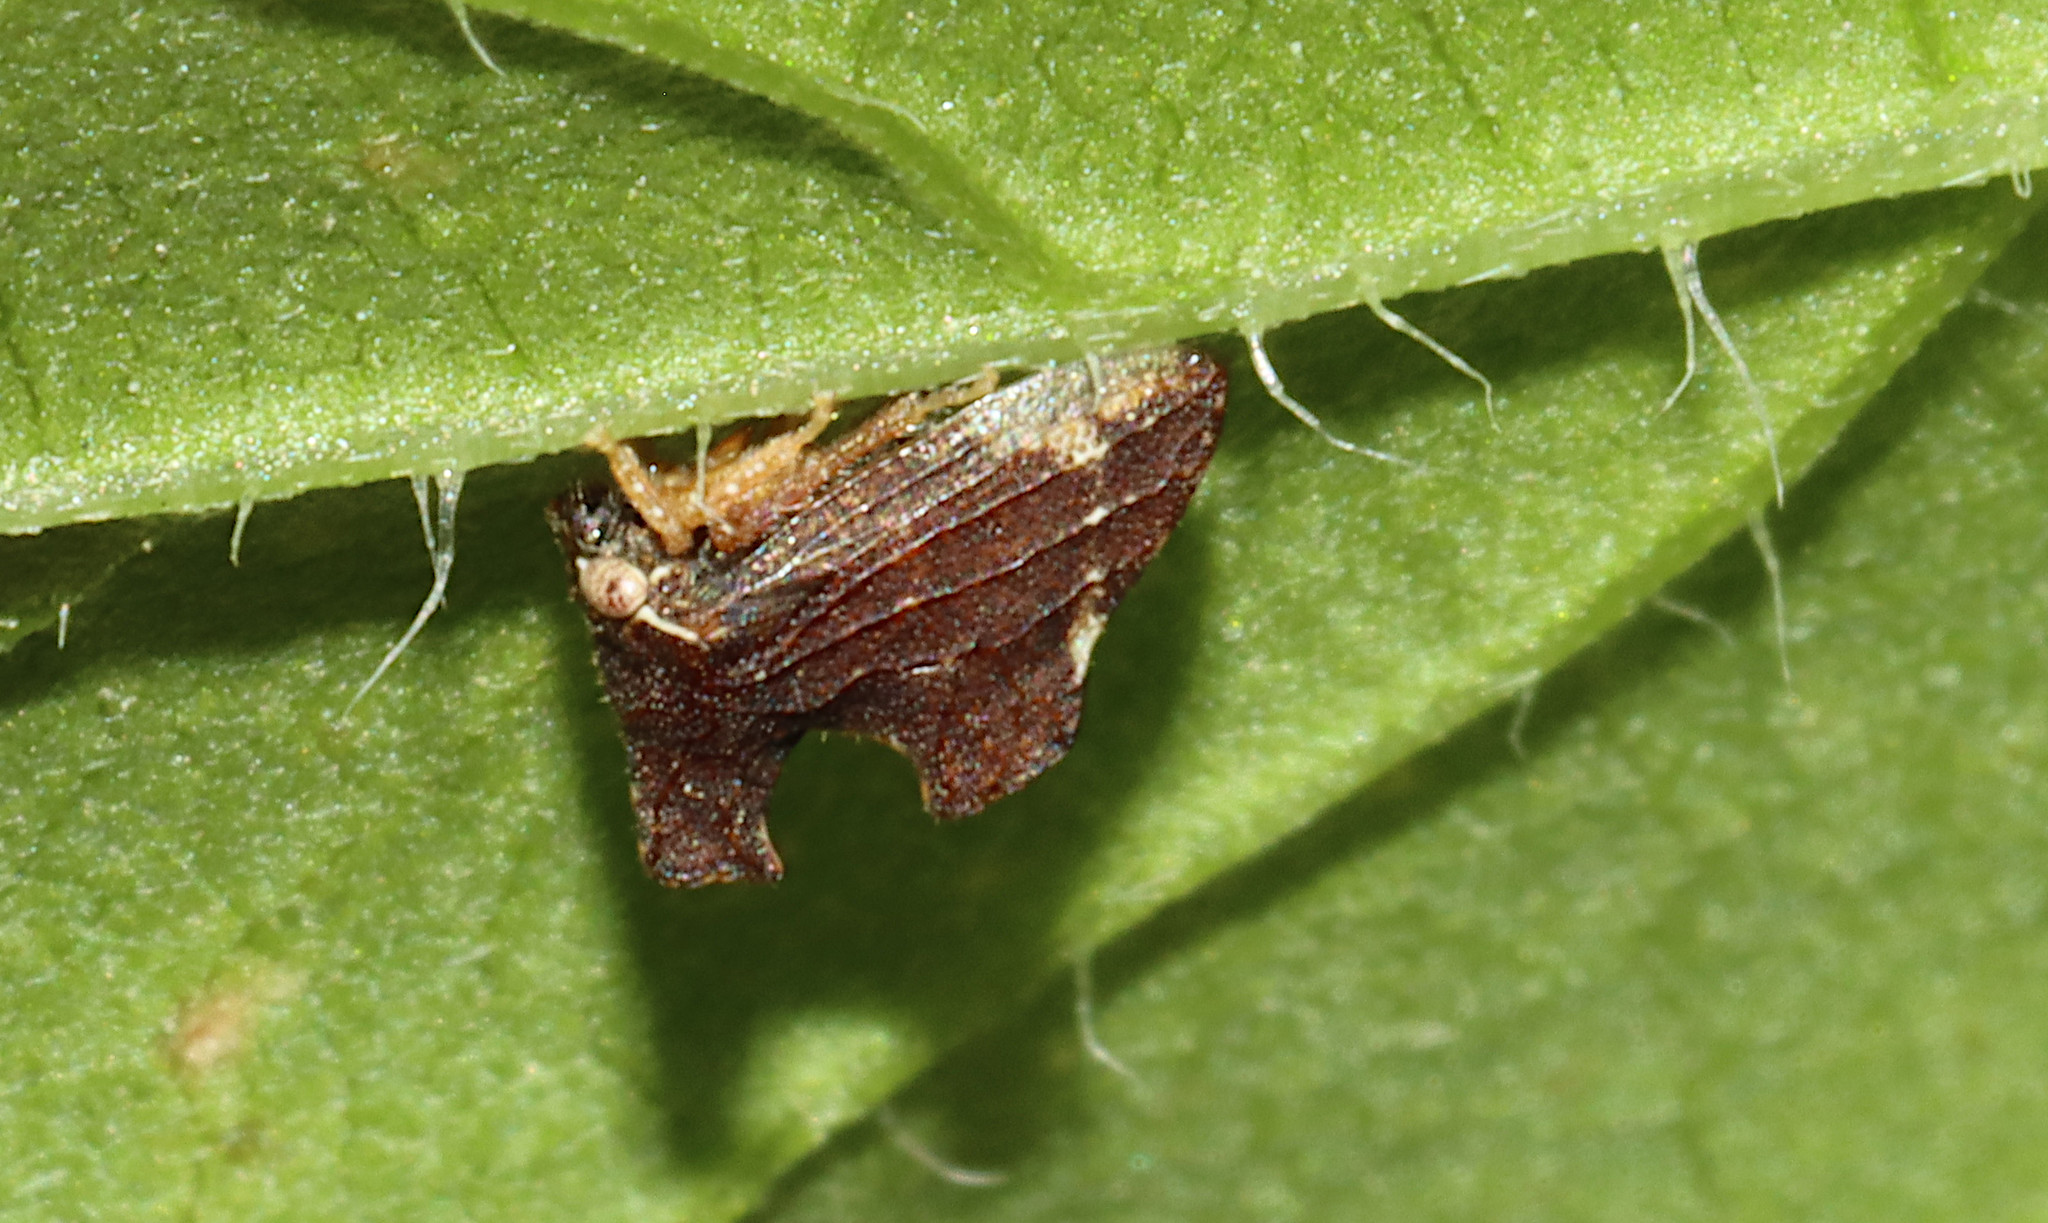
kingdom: Animalia
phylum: Arthropoda
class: Insecta
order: Hemiptera
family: Membracidae
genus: Entylia
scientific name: Entylia carinata
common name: Keeled treehopper
